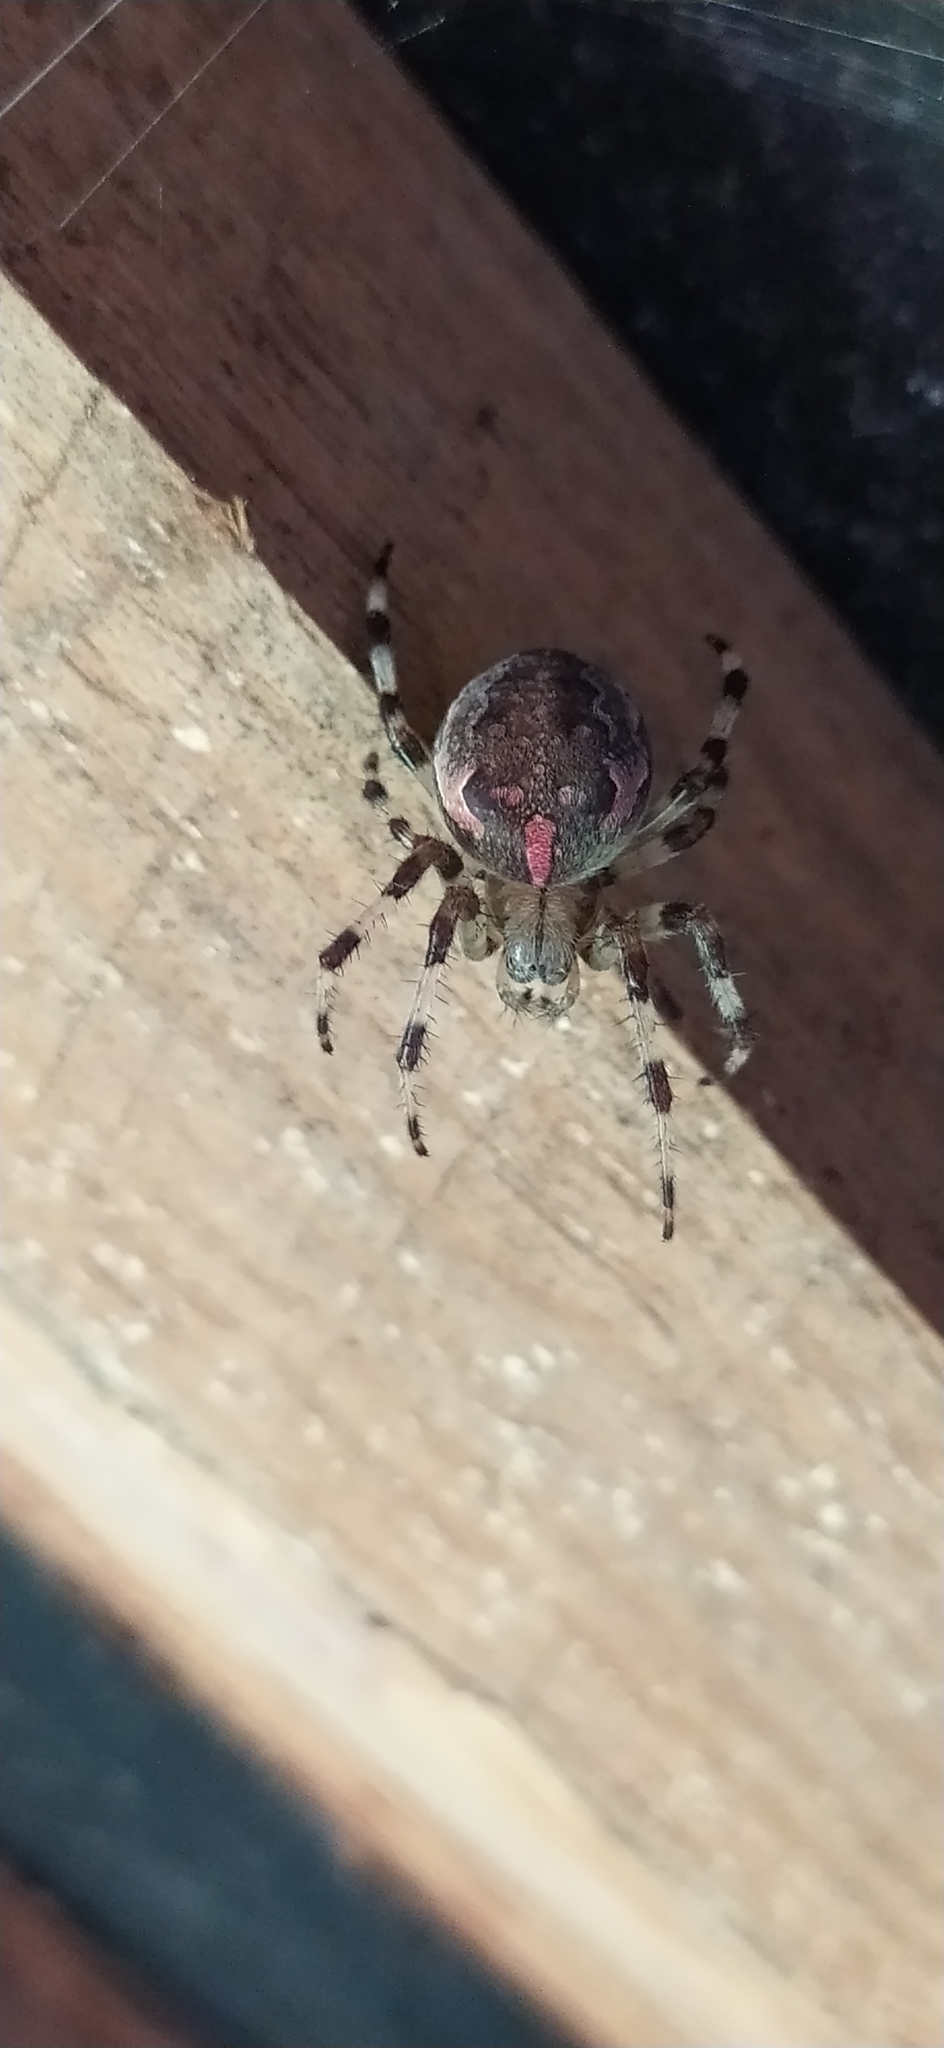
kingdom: Animalia
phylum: Arthropoda
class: Arachnida
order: Araneae
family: Araneidae
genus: Araneus
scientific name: Araneus marmoreus
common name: Marbled orbweaver
